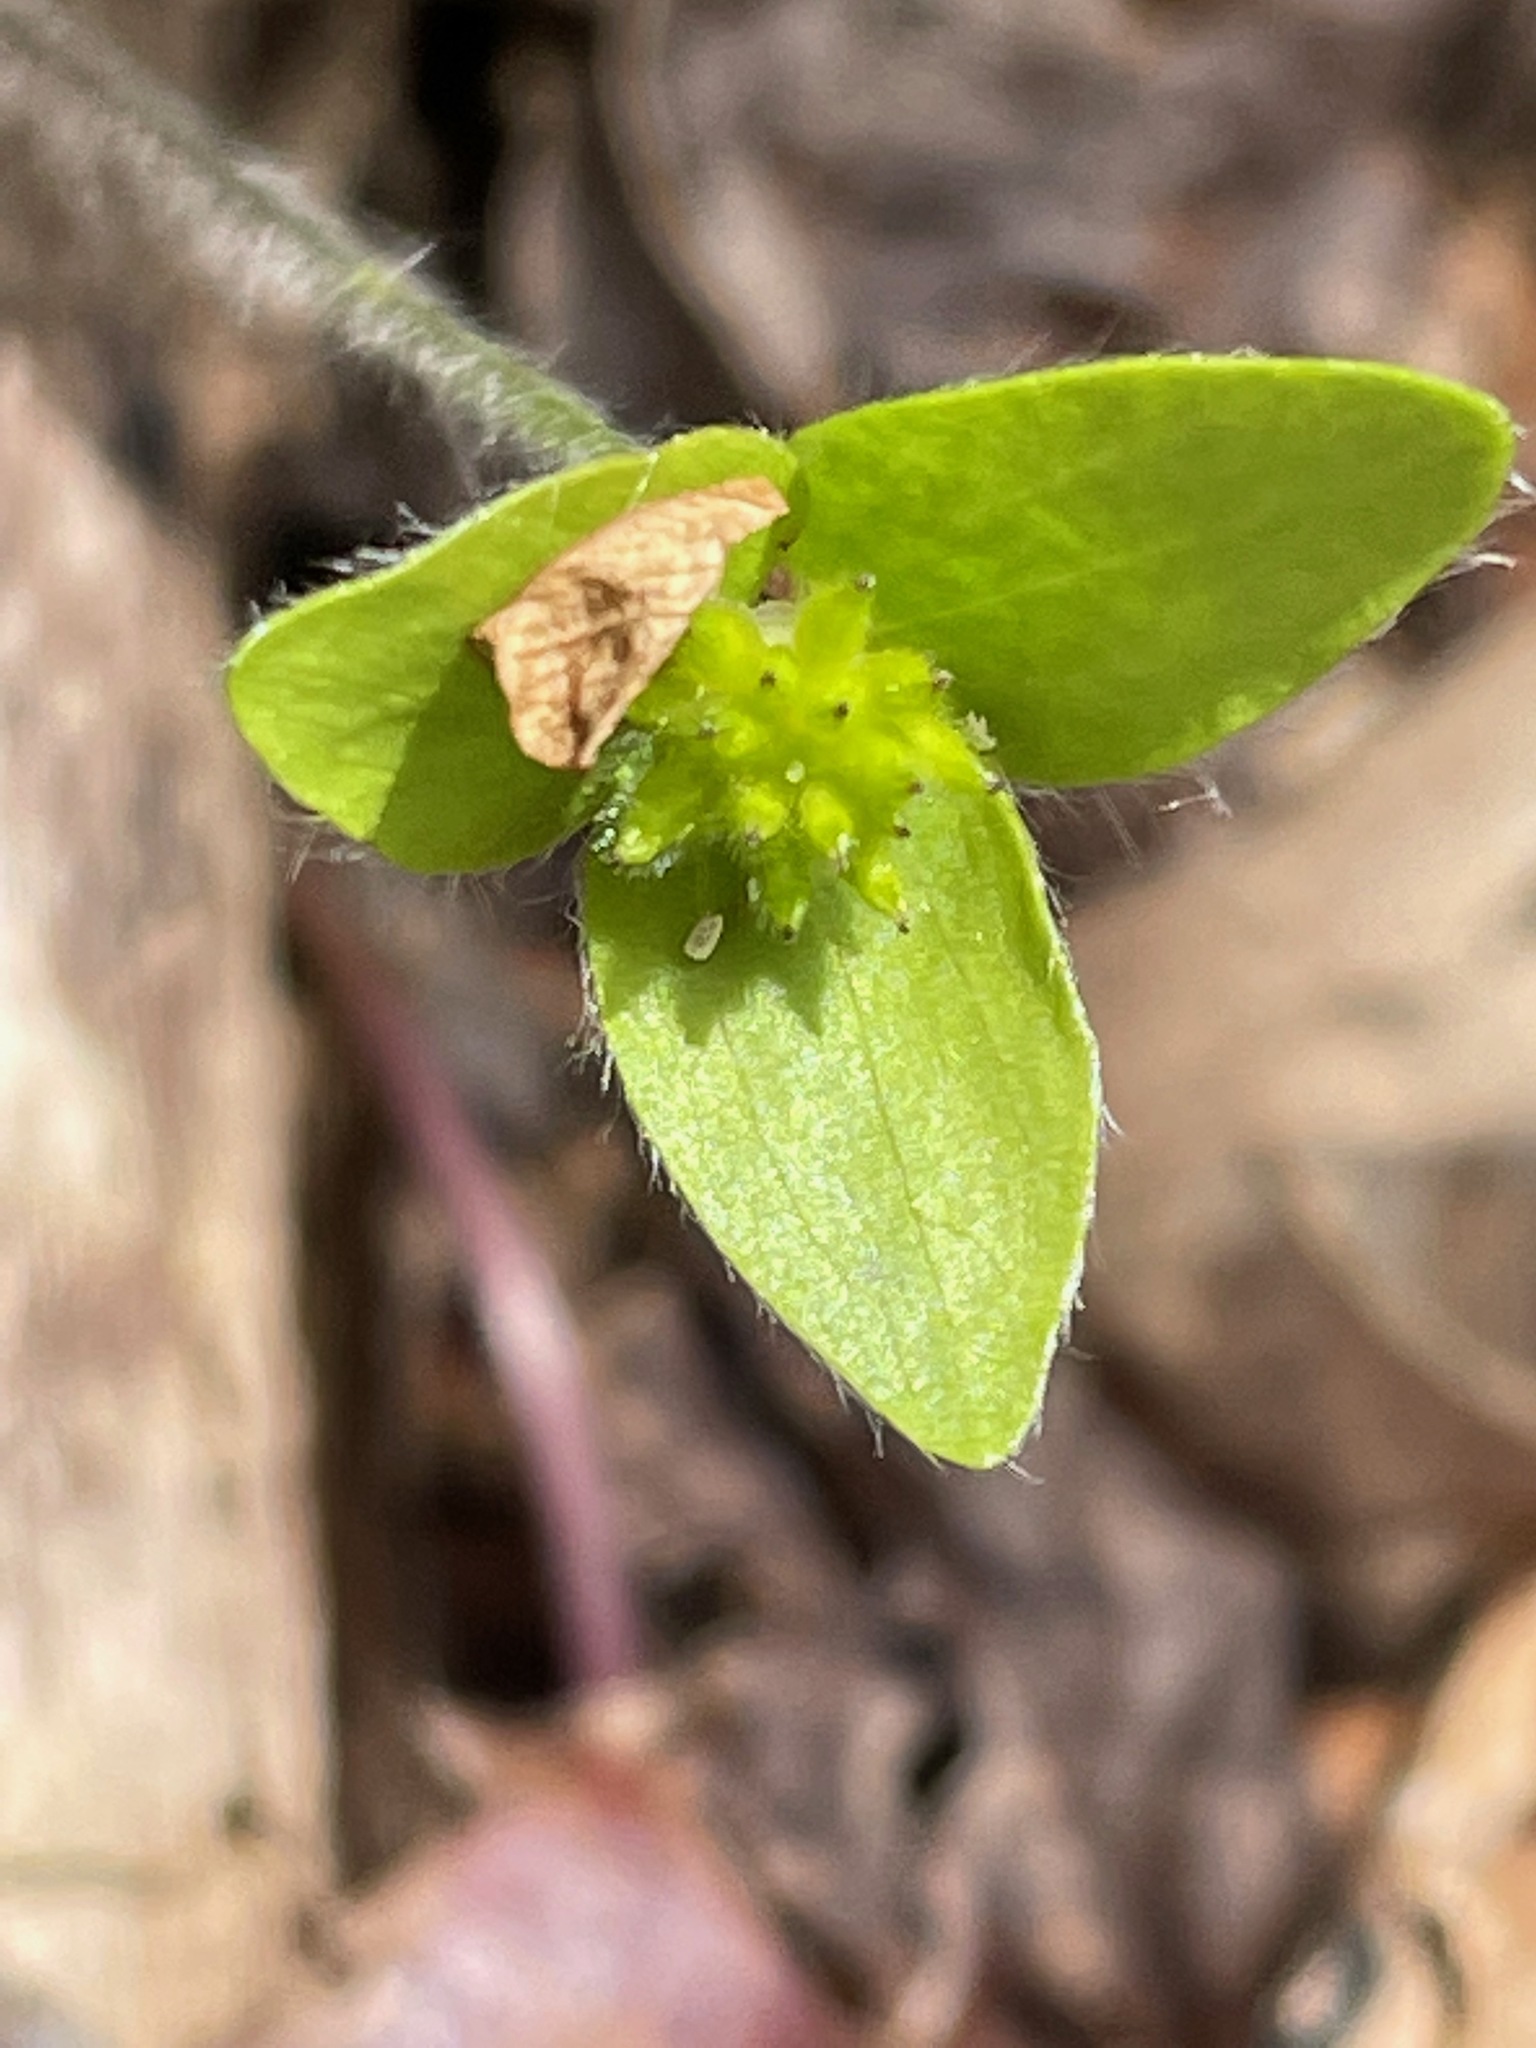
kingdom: Plantae
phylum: Tracheophyta
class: Magnoliopsida
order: Ranunculales
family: Ranunculaceae
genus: Hepatica
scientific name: Hepatica acutiloba
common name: Sharp-lobed hepatica
